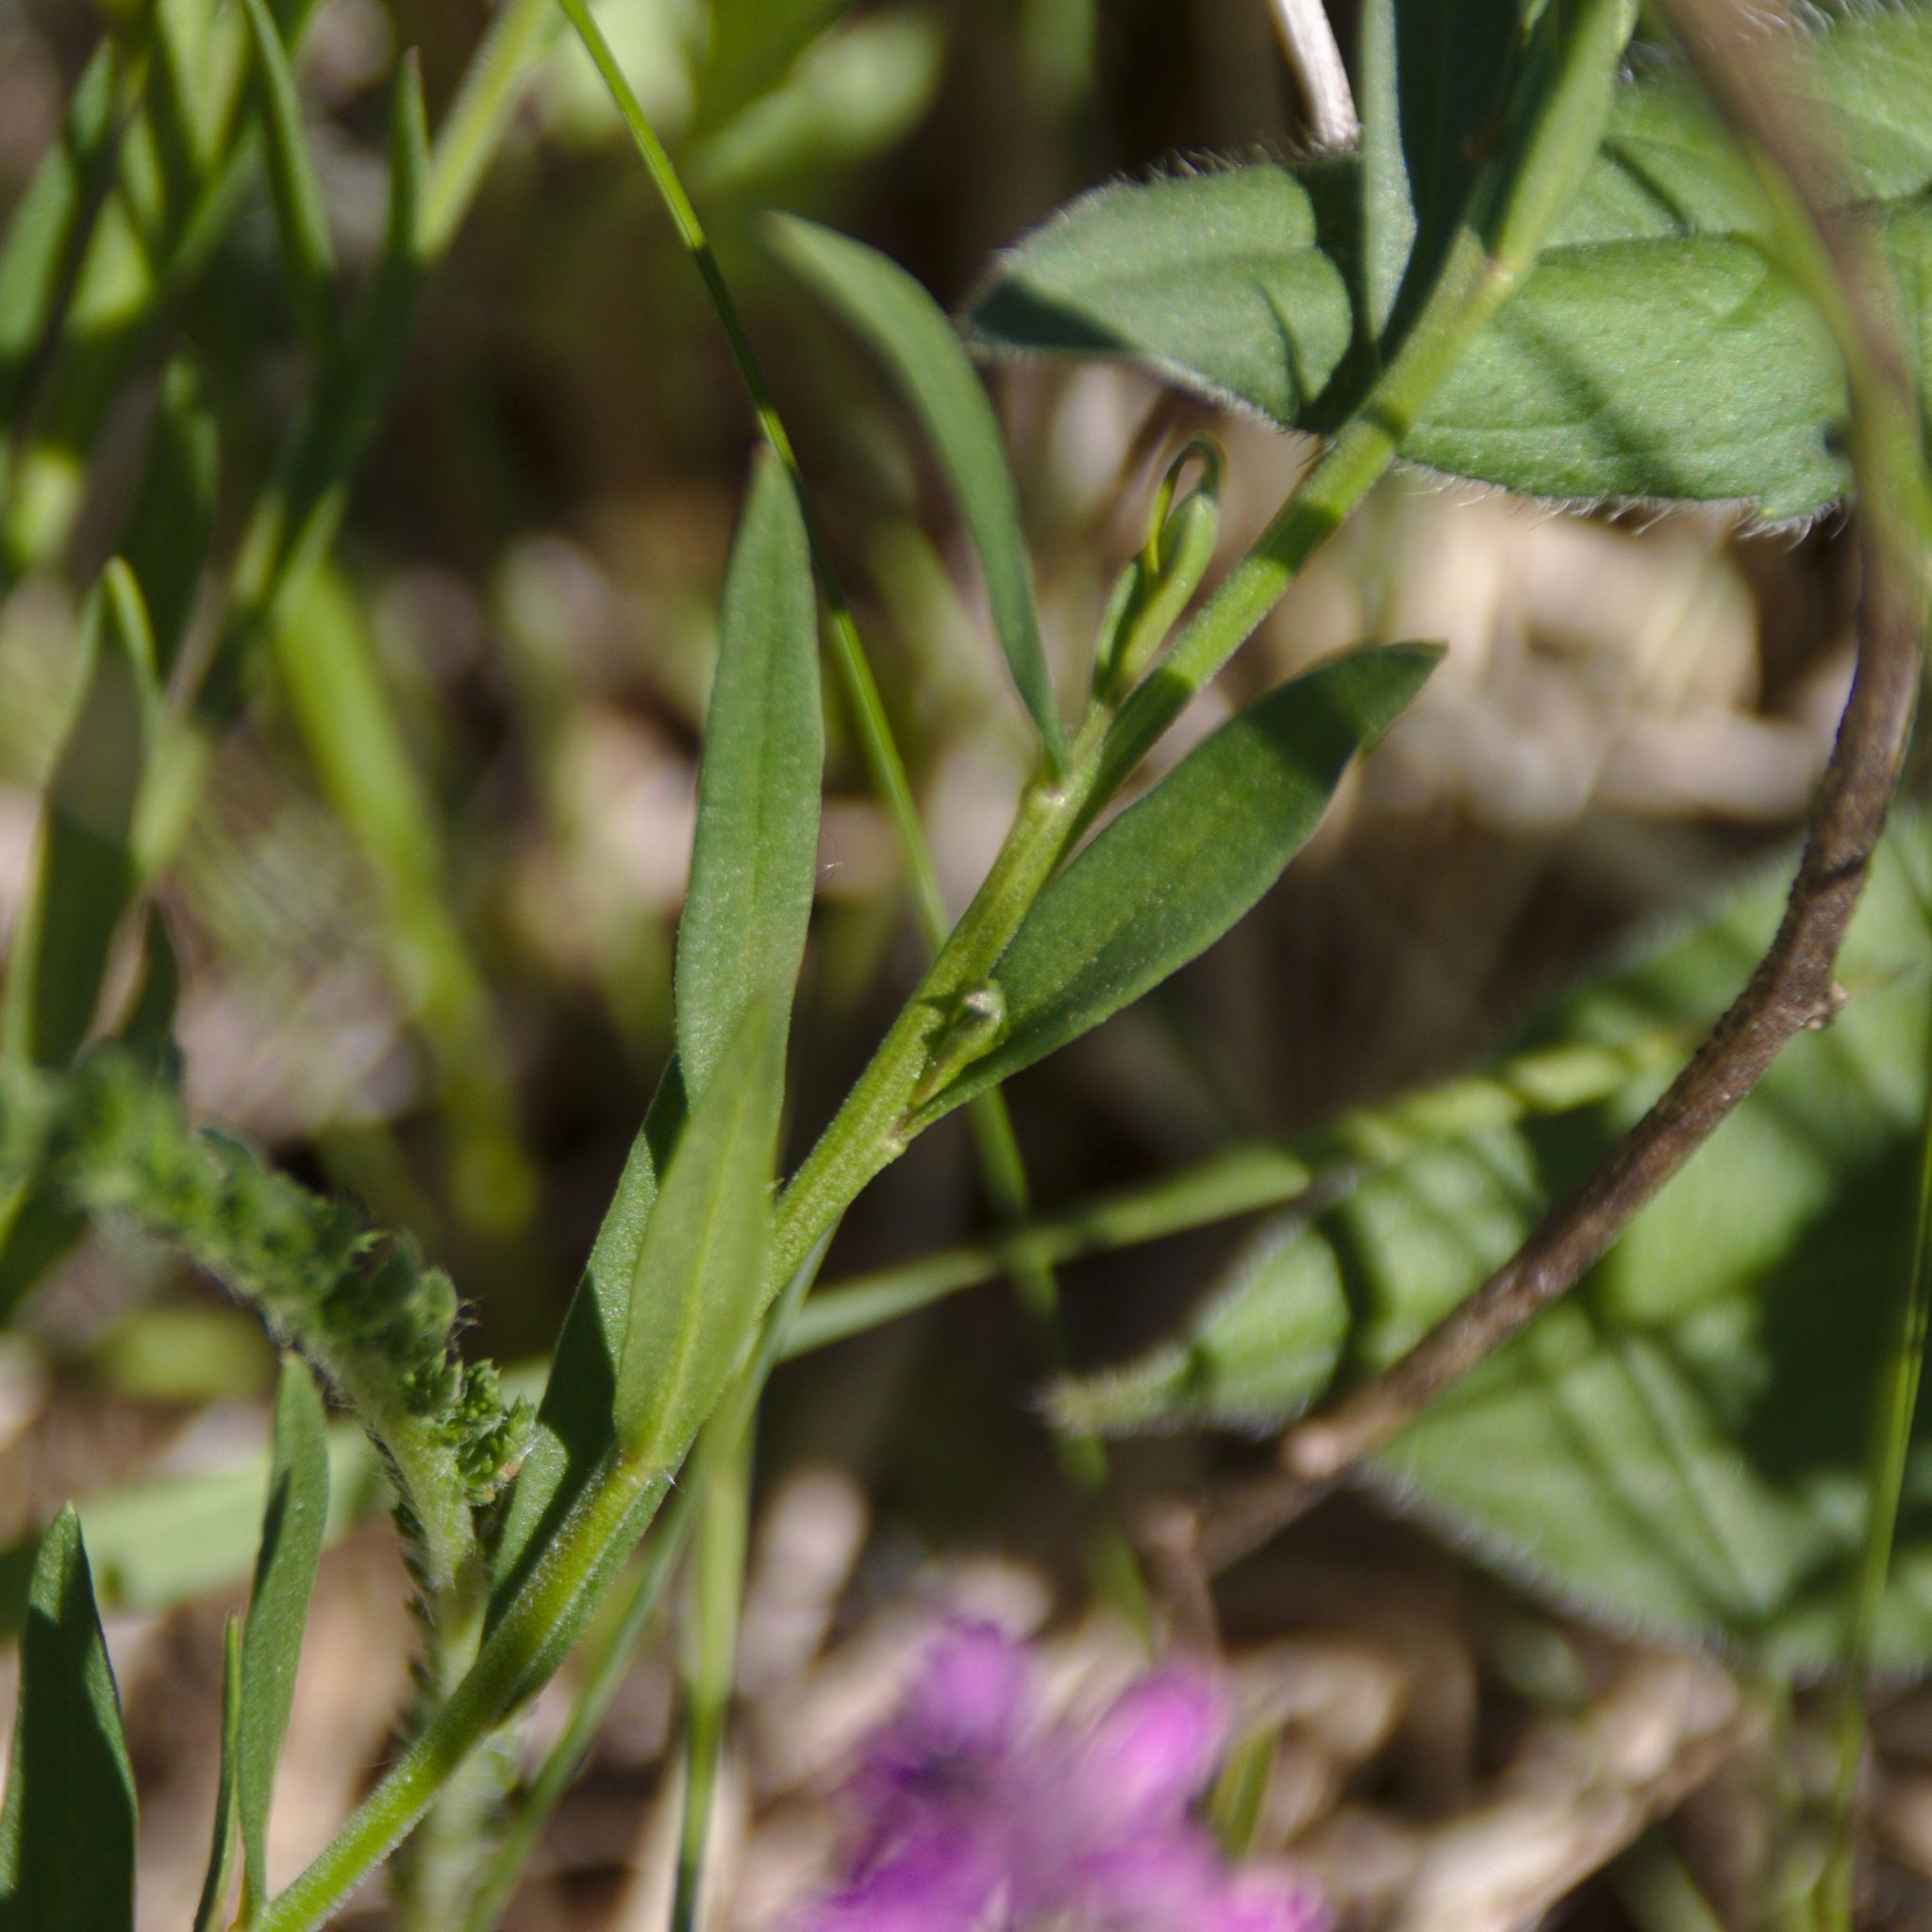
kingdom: Plantae
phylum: Tracheophyta
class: Magnoliopsida
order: Fabales
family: Polygalaceae
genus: Polygala
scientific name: Polygala comosa
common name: Tufted milkwort
